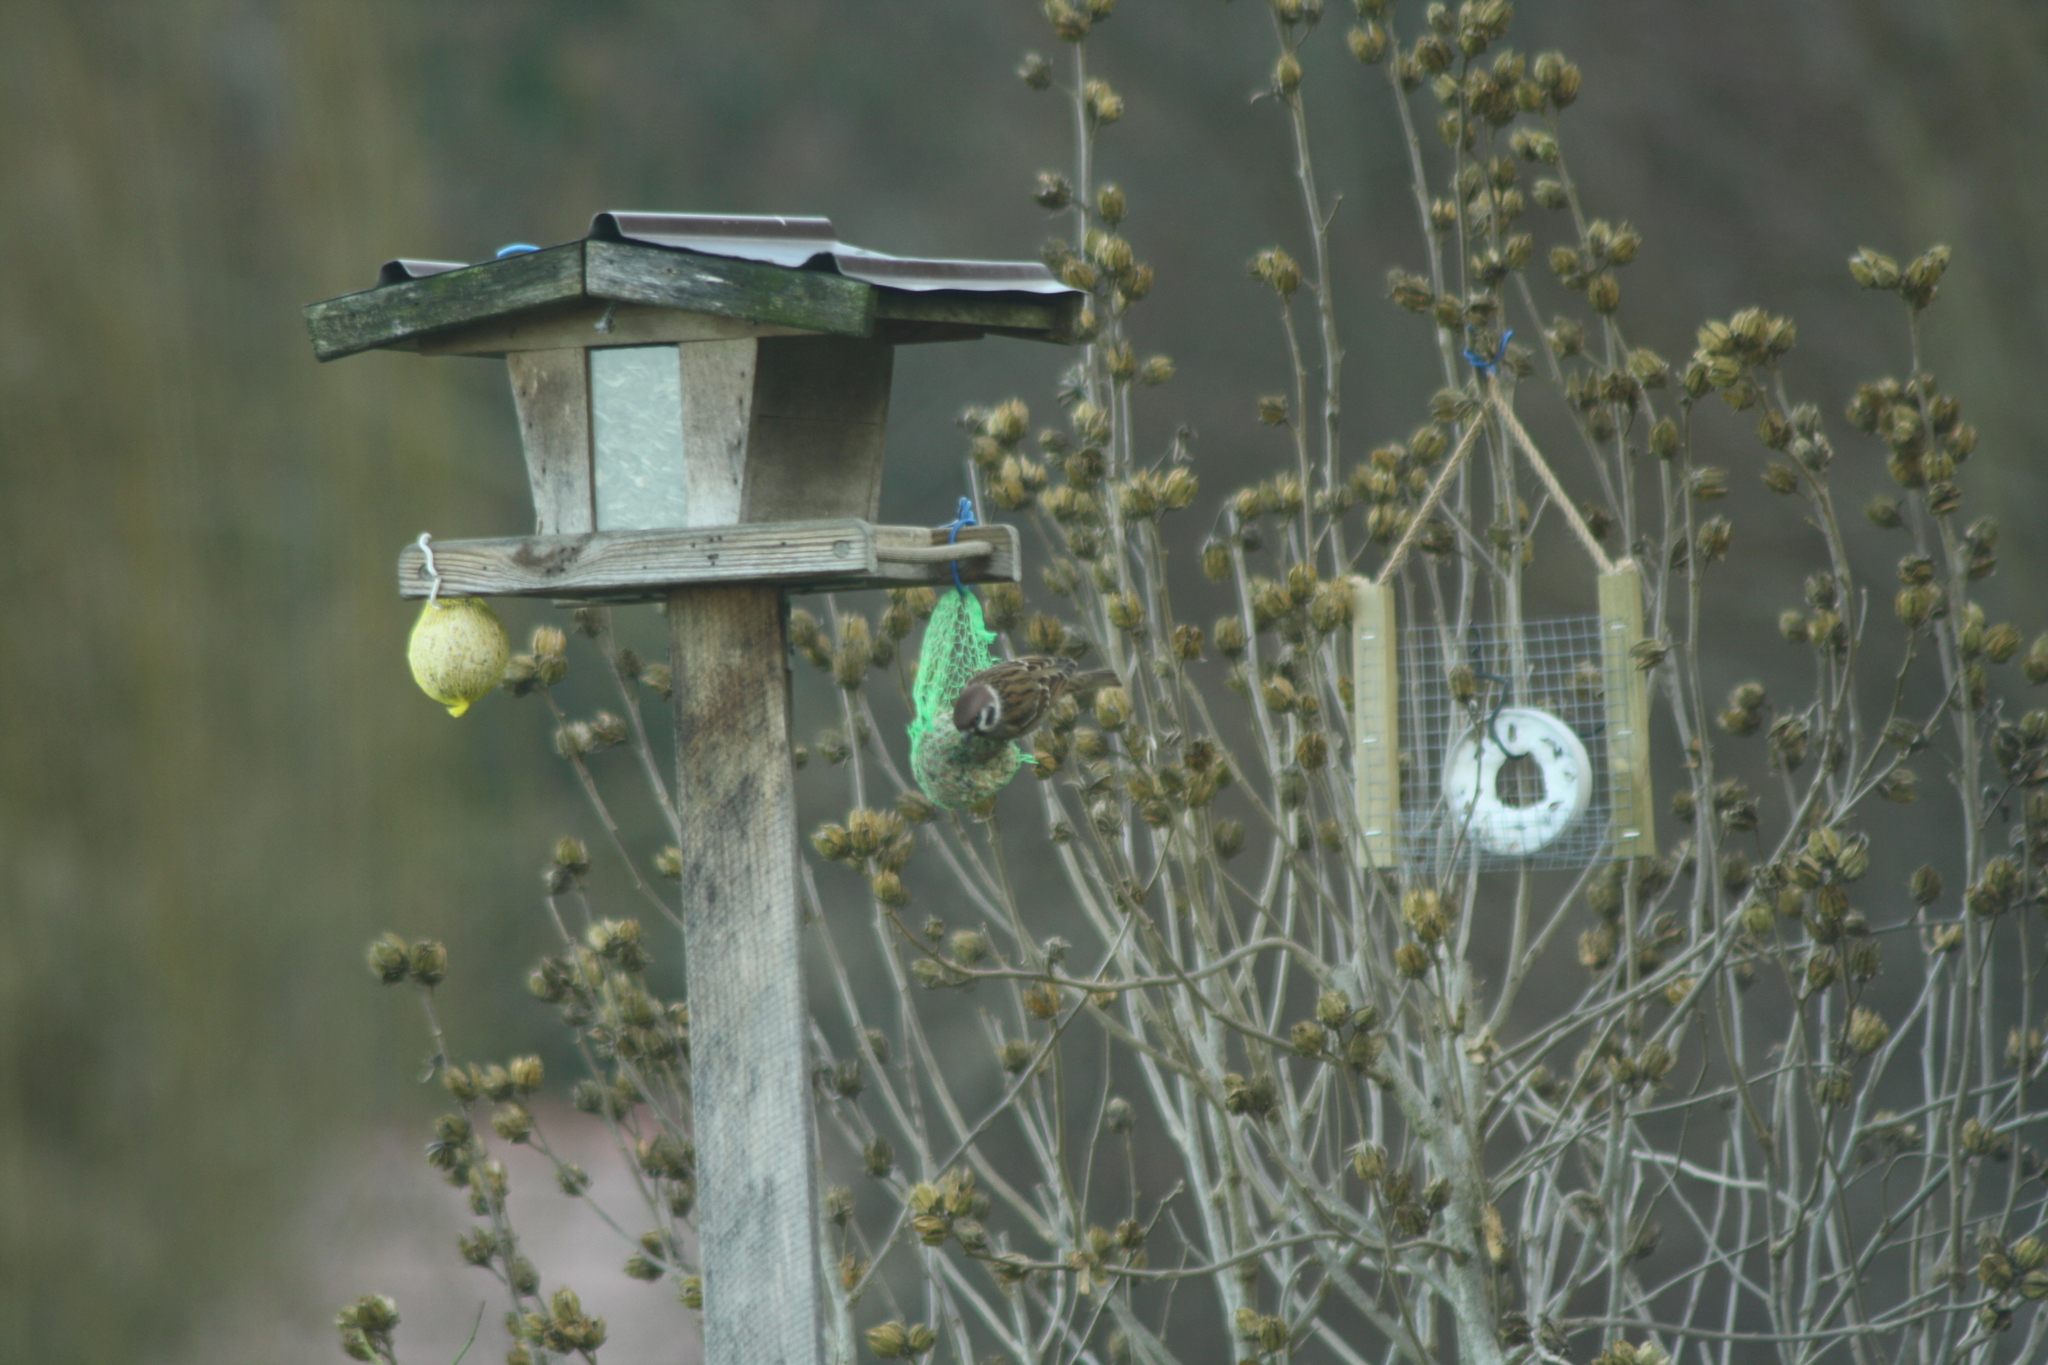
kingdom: Animalia
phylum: Chordata
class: Aves
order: Passeriformes
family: Passeridae
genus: Passer
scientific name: Passer montanus
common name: Eurasian tree sparrow
